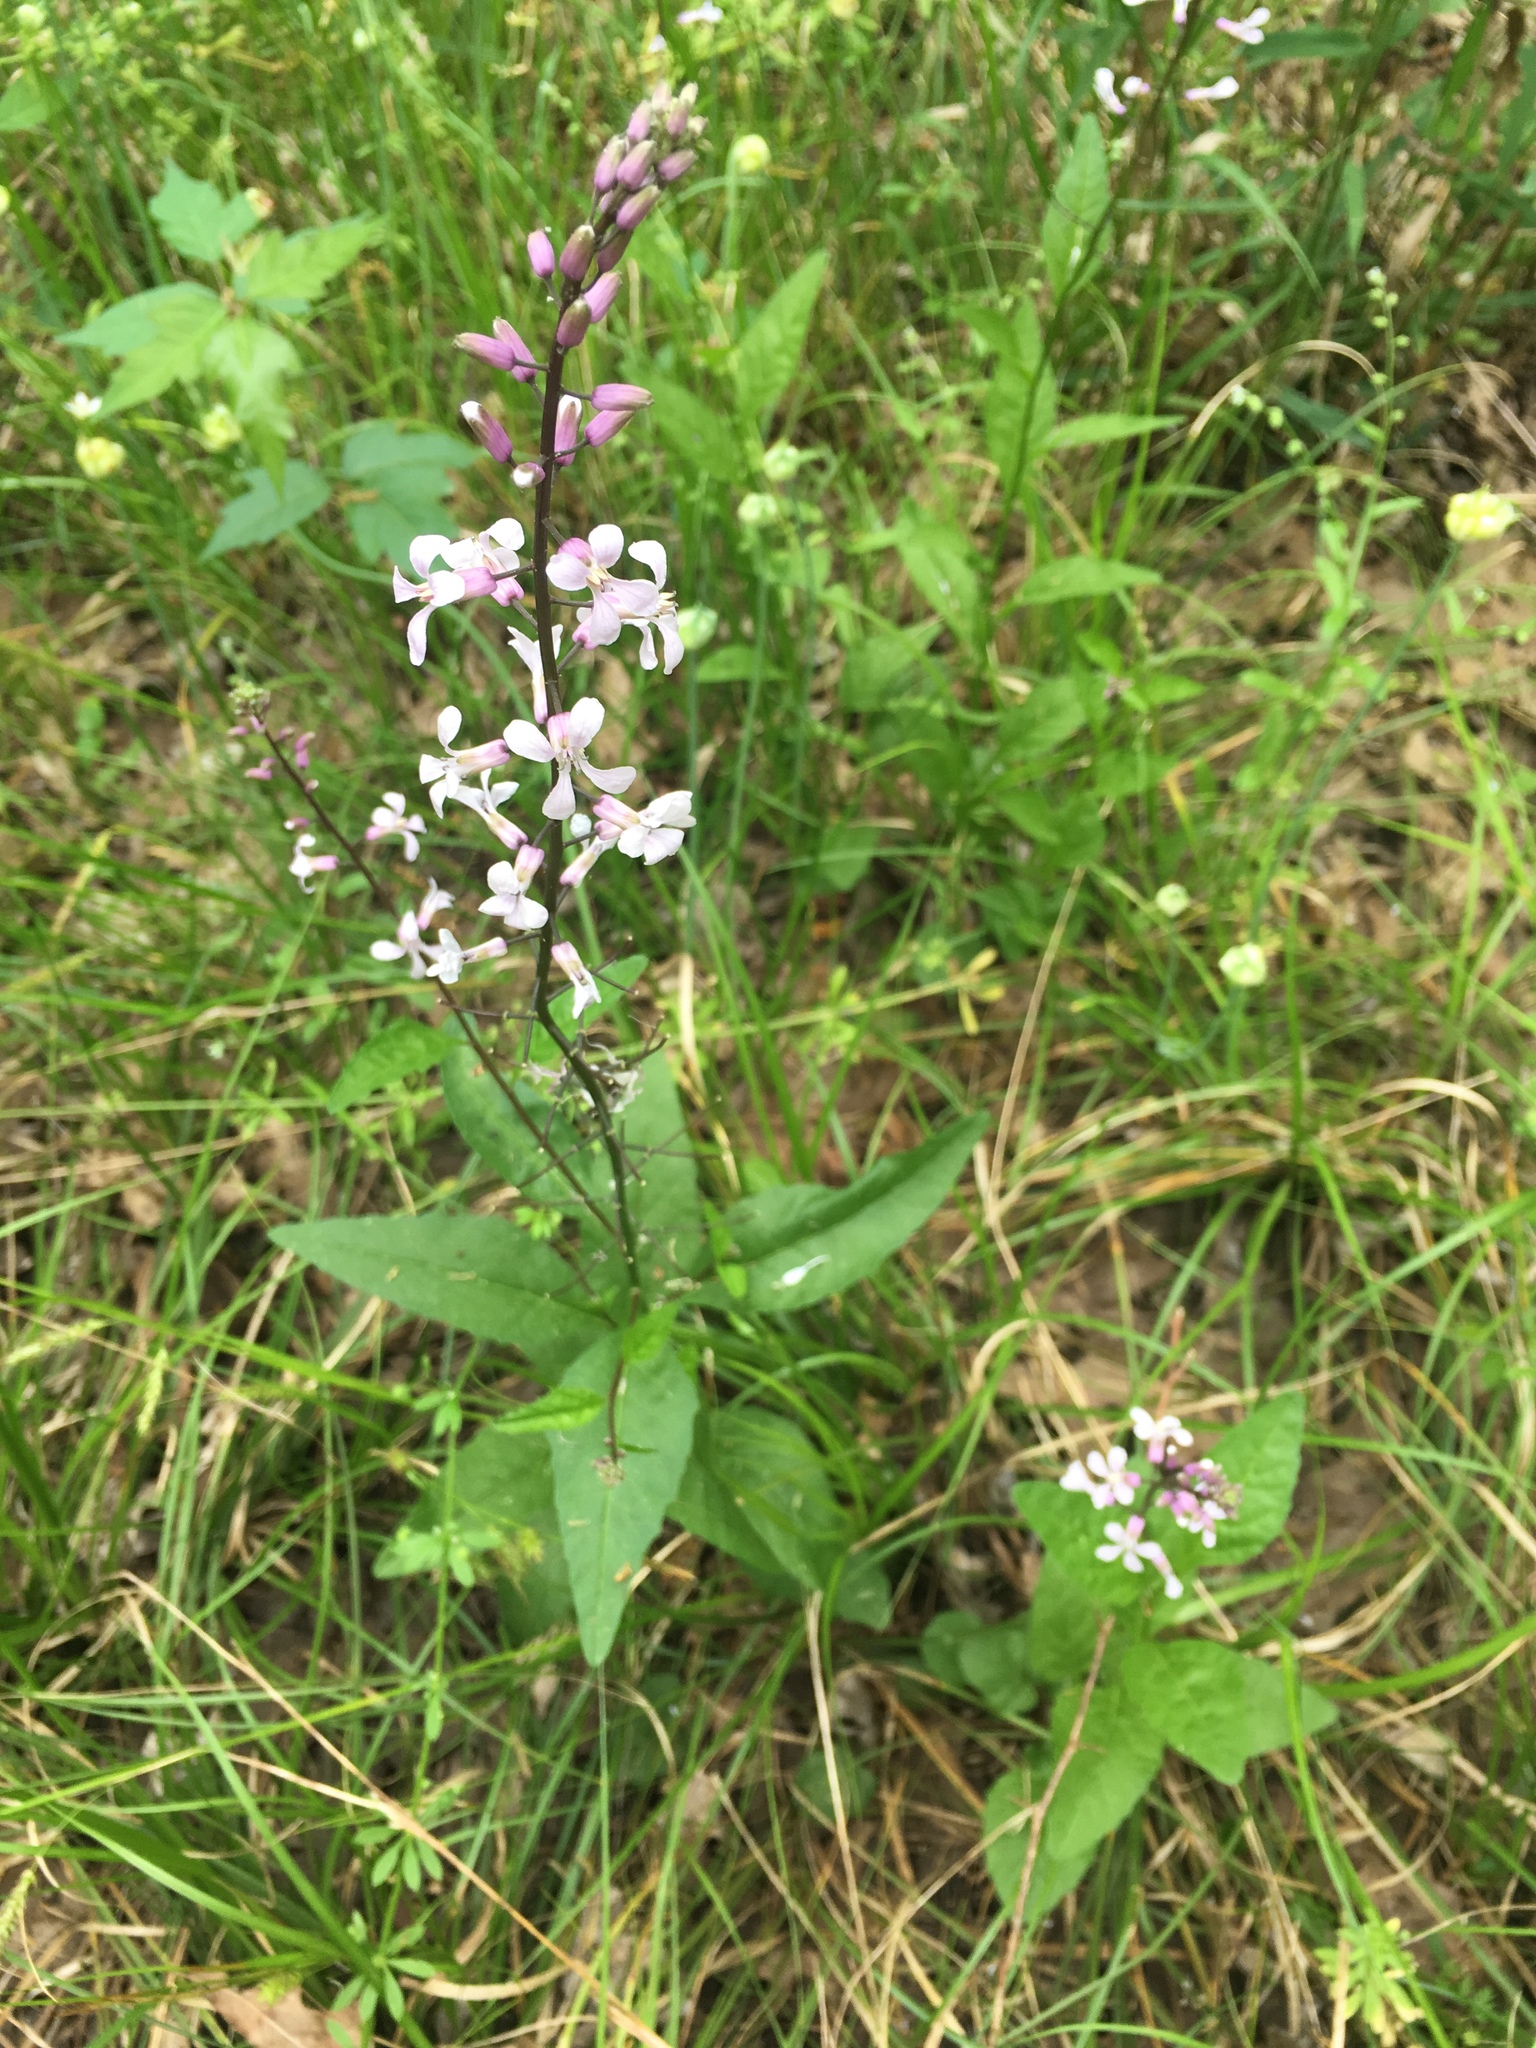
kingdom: Plantae
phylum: Tracheophyta
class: Magnoliopsida
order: Brassicales
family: Brassicaceae
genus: Iodanthus
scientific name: Iodanthus pinnatifidus
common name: Violet rocket
